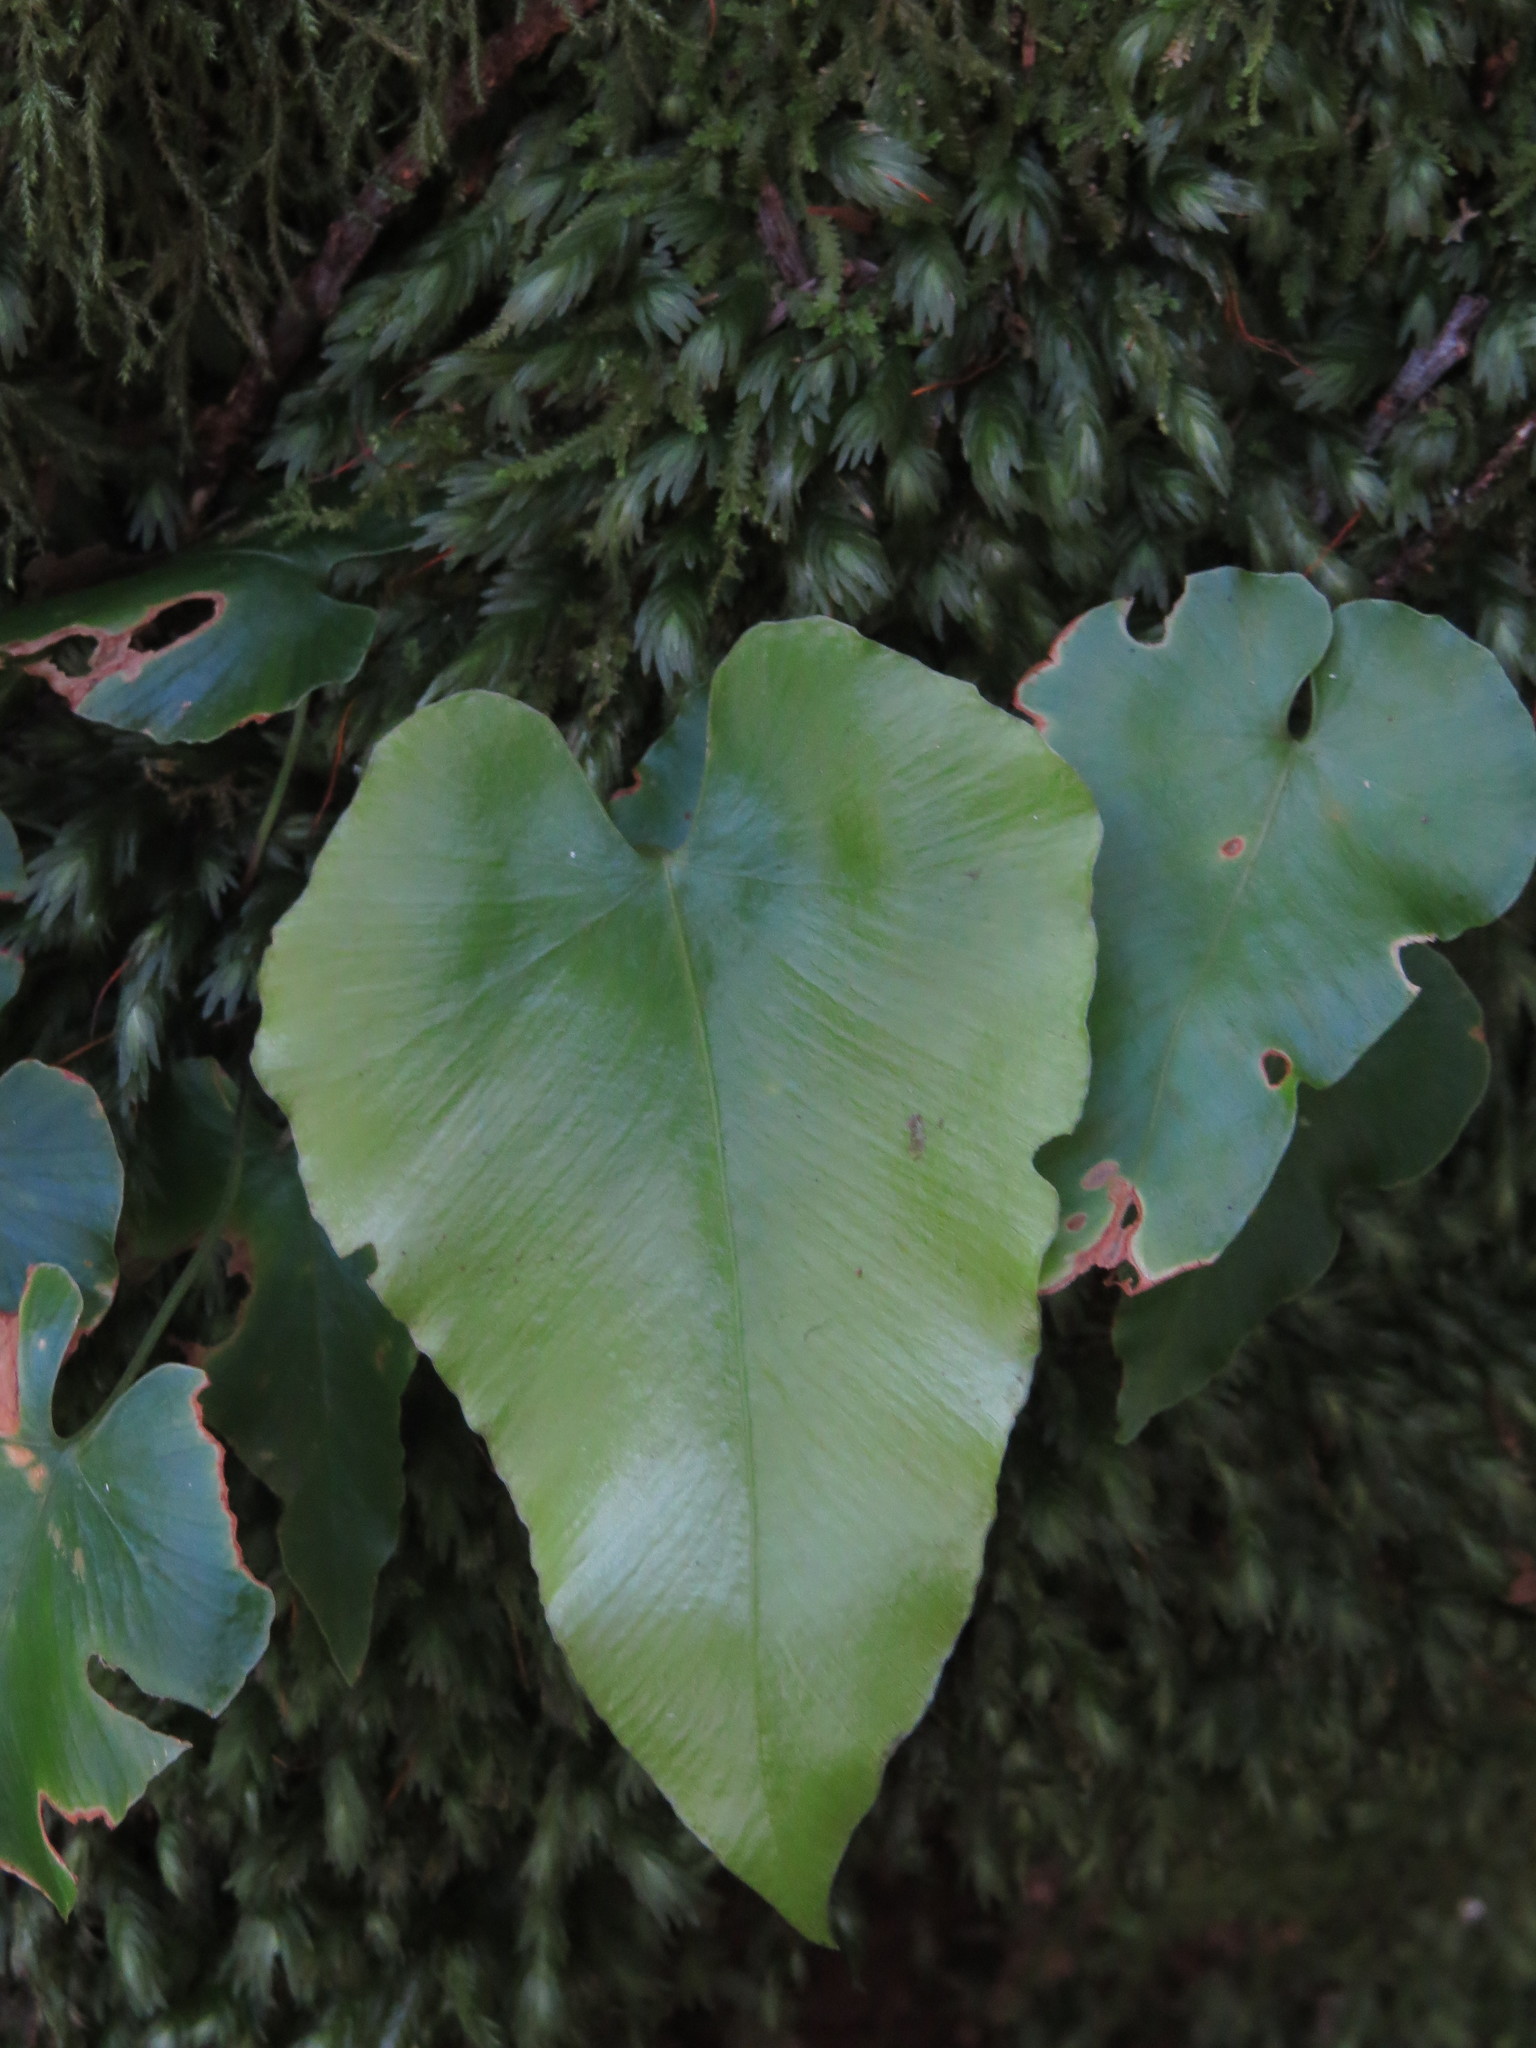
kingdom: Plantae
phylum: Tracheophyta
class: Polypodiopsida
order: Polypodiales
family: Aspleniaceae
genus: Asplenium
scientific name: Asplenium hemionitis
